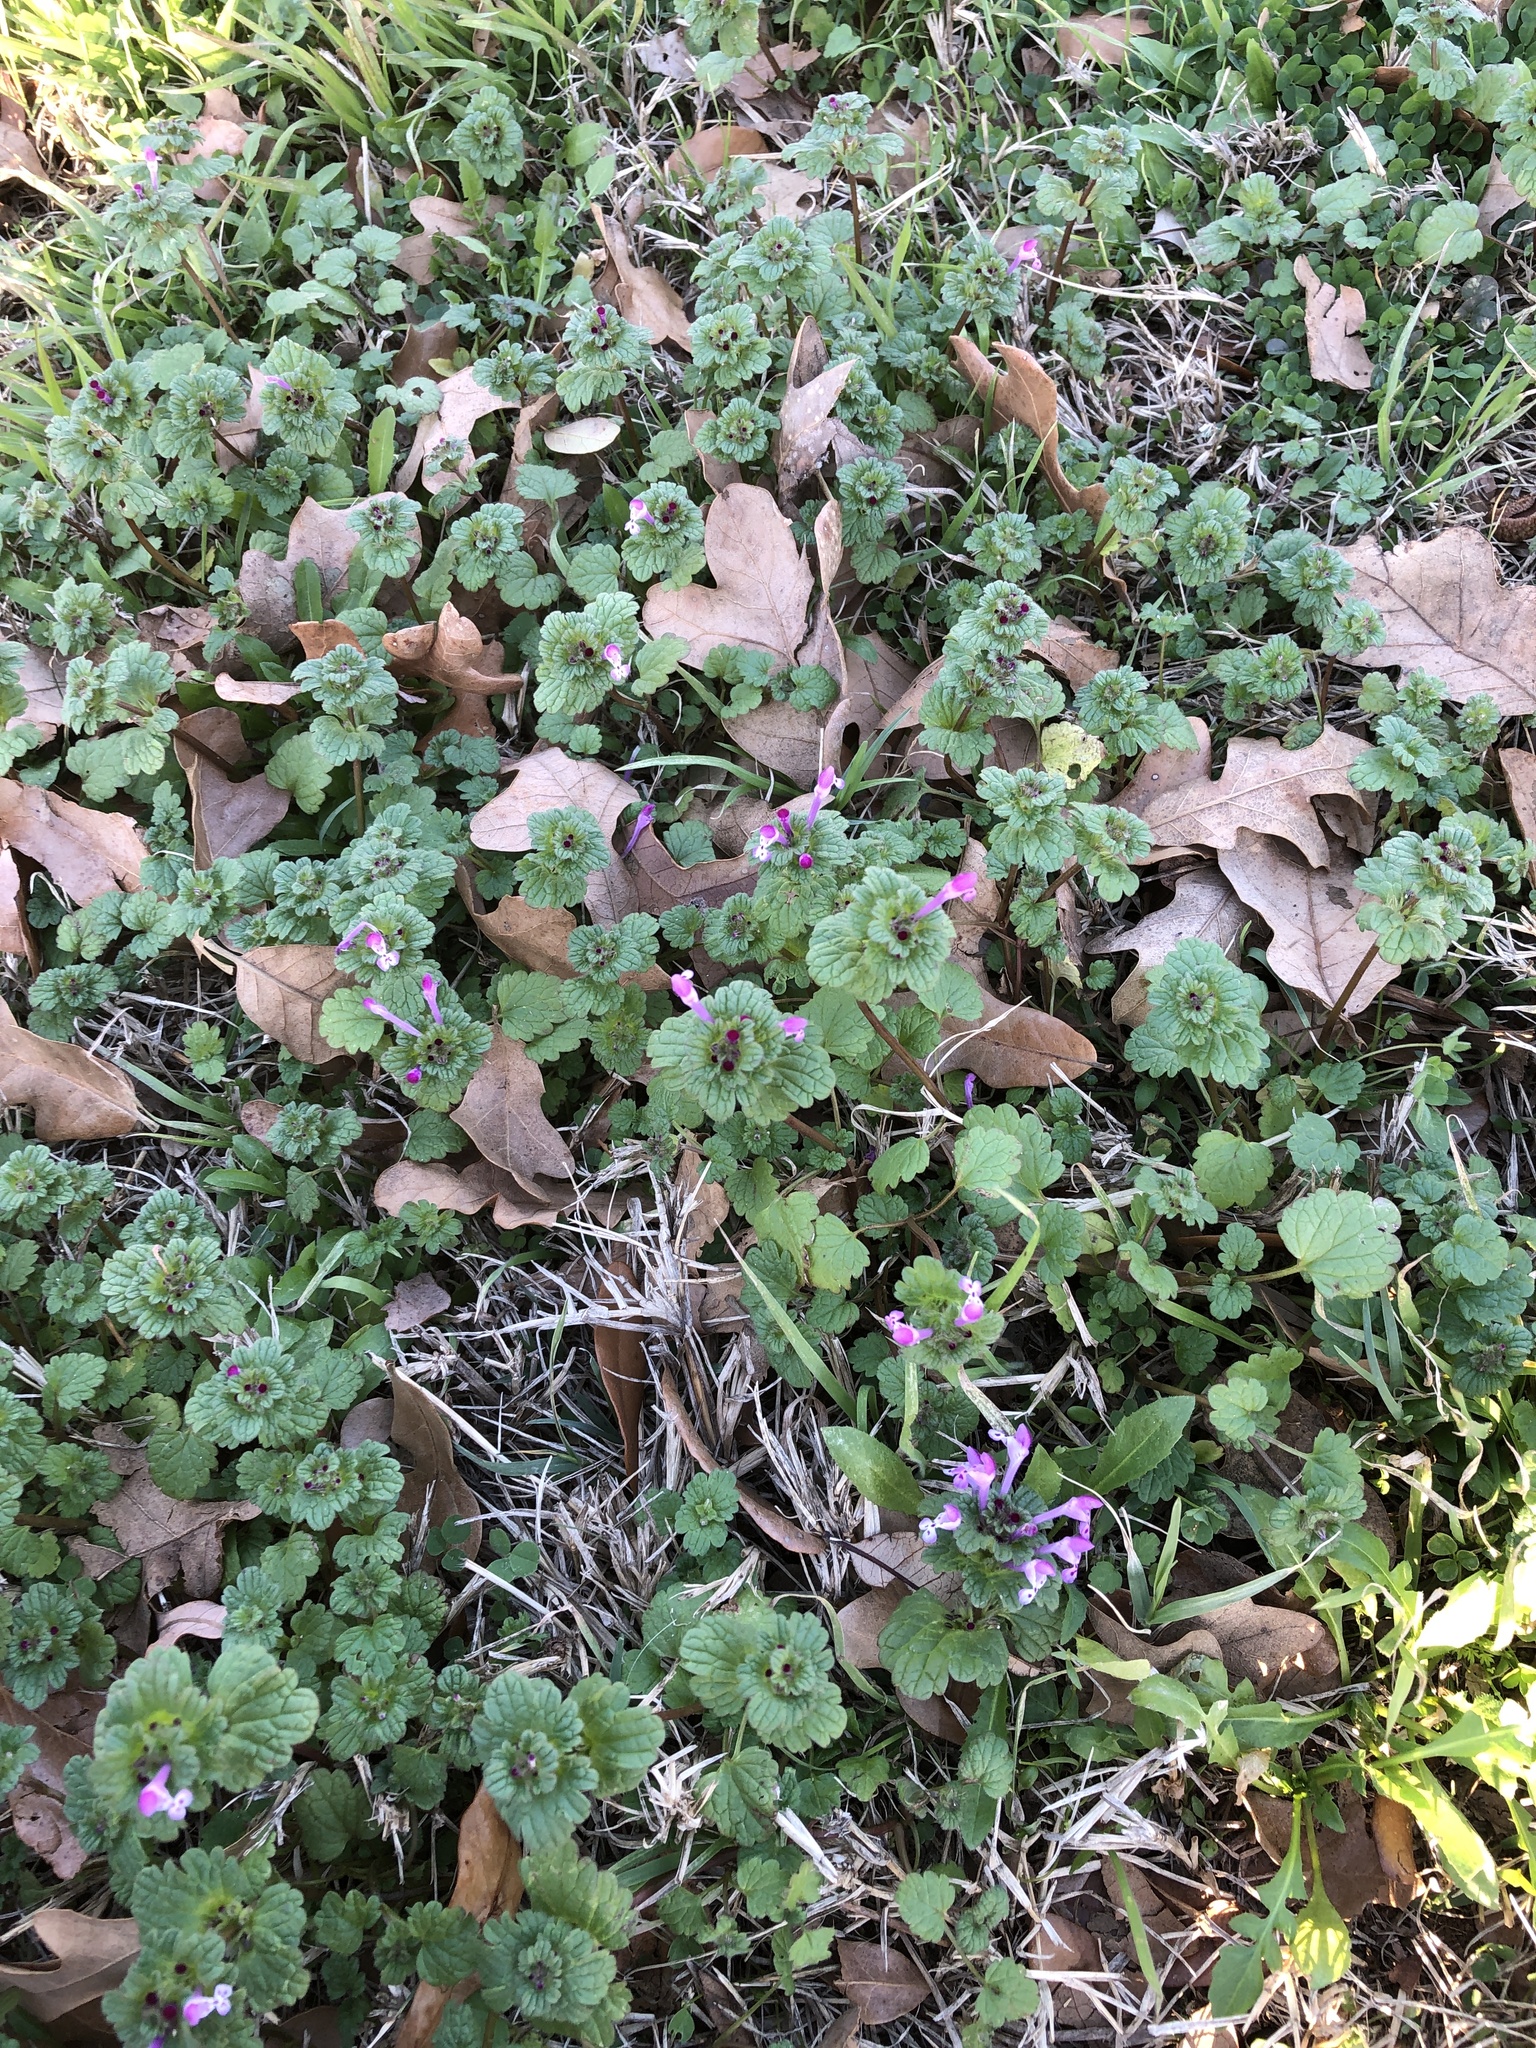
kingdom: Plantae
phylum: Tracheophyta
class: Magnoliopsida
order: Lamiales
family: Lamiaceae
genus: Lamium
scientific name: Lamium amplexicaule
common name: Henbit dead-nettle
